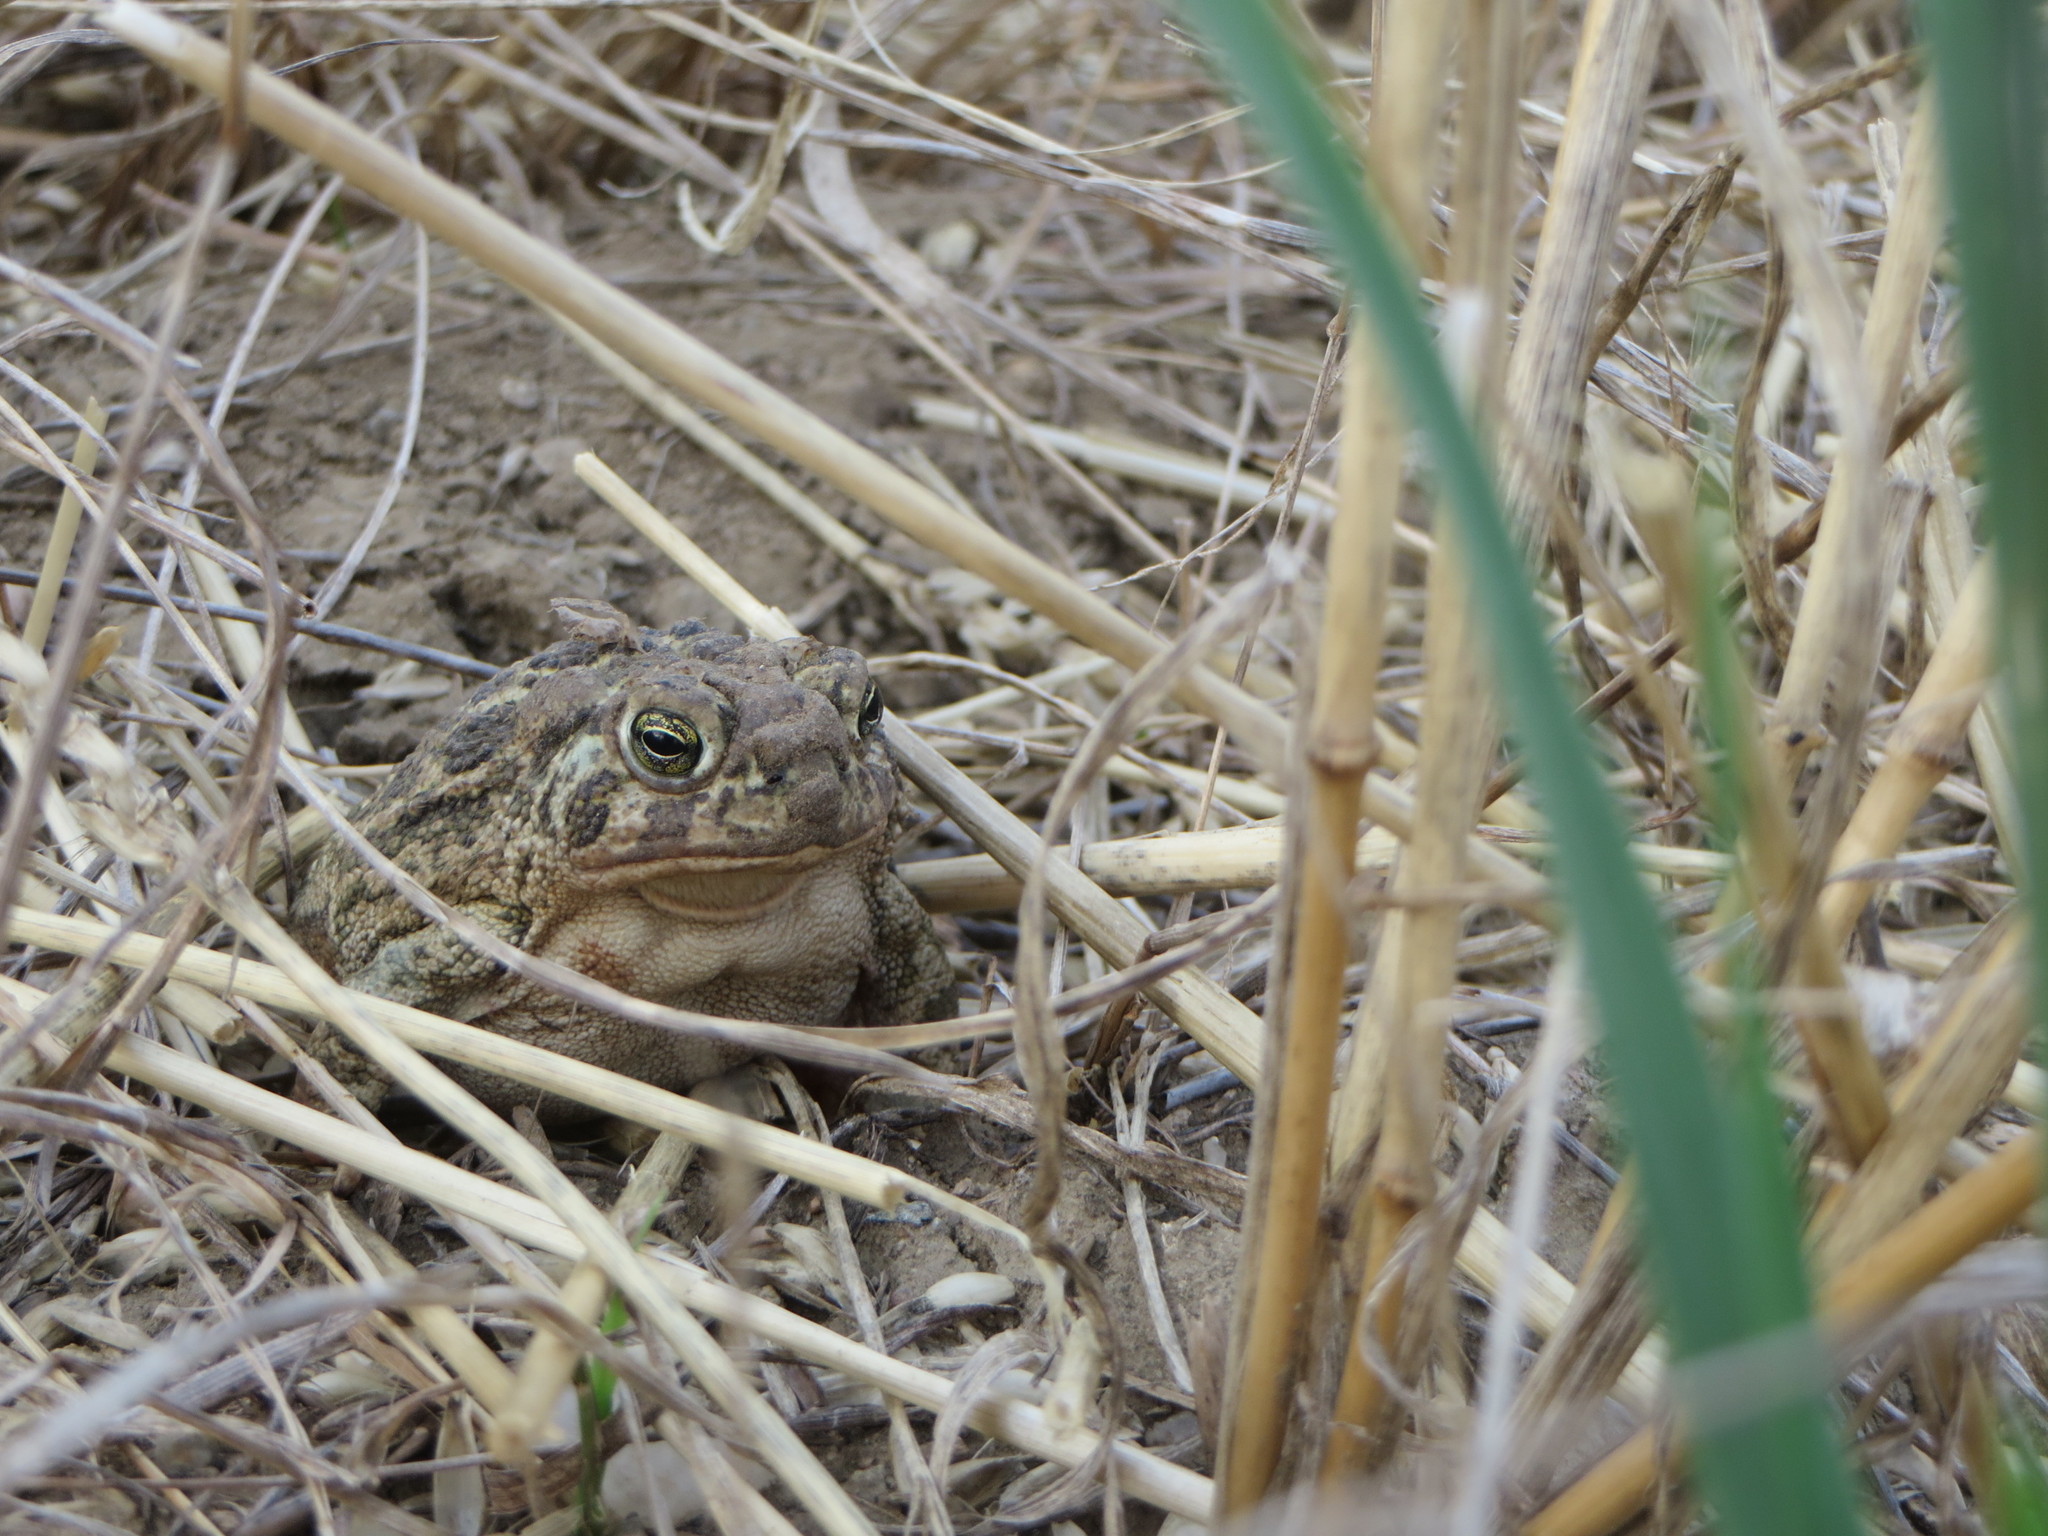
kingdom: Animalia
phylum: Chordata
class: Amphibia
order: Anura
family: Bufonidae
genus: Anaxyrus
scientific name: Anaxyrus cognatus
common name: Great plains toad
